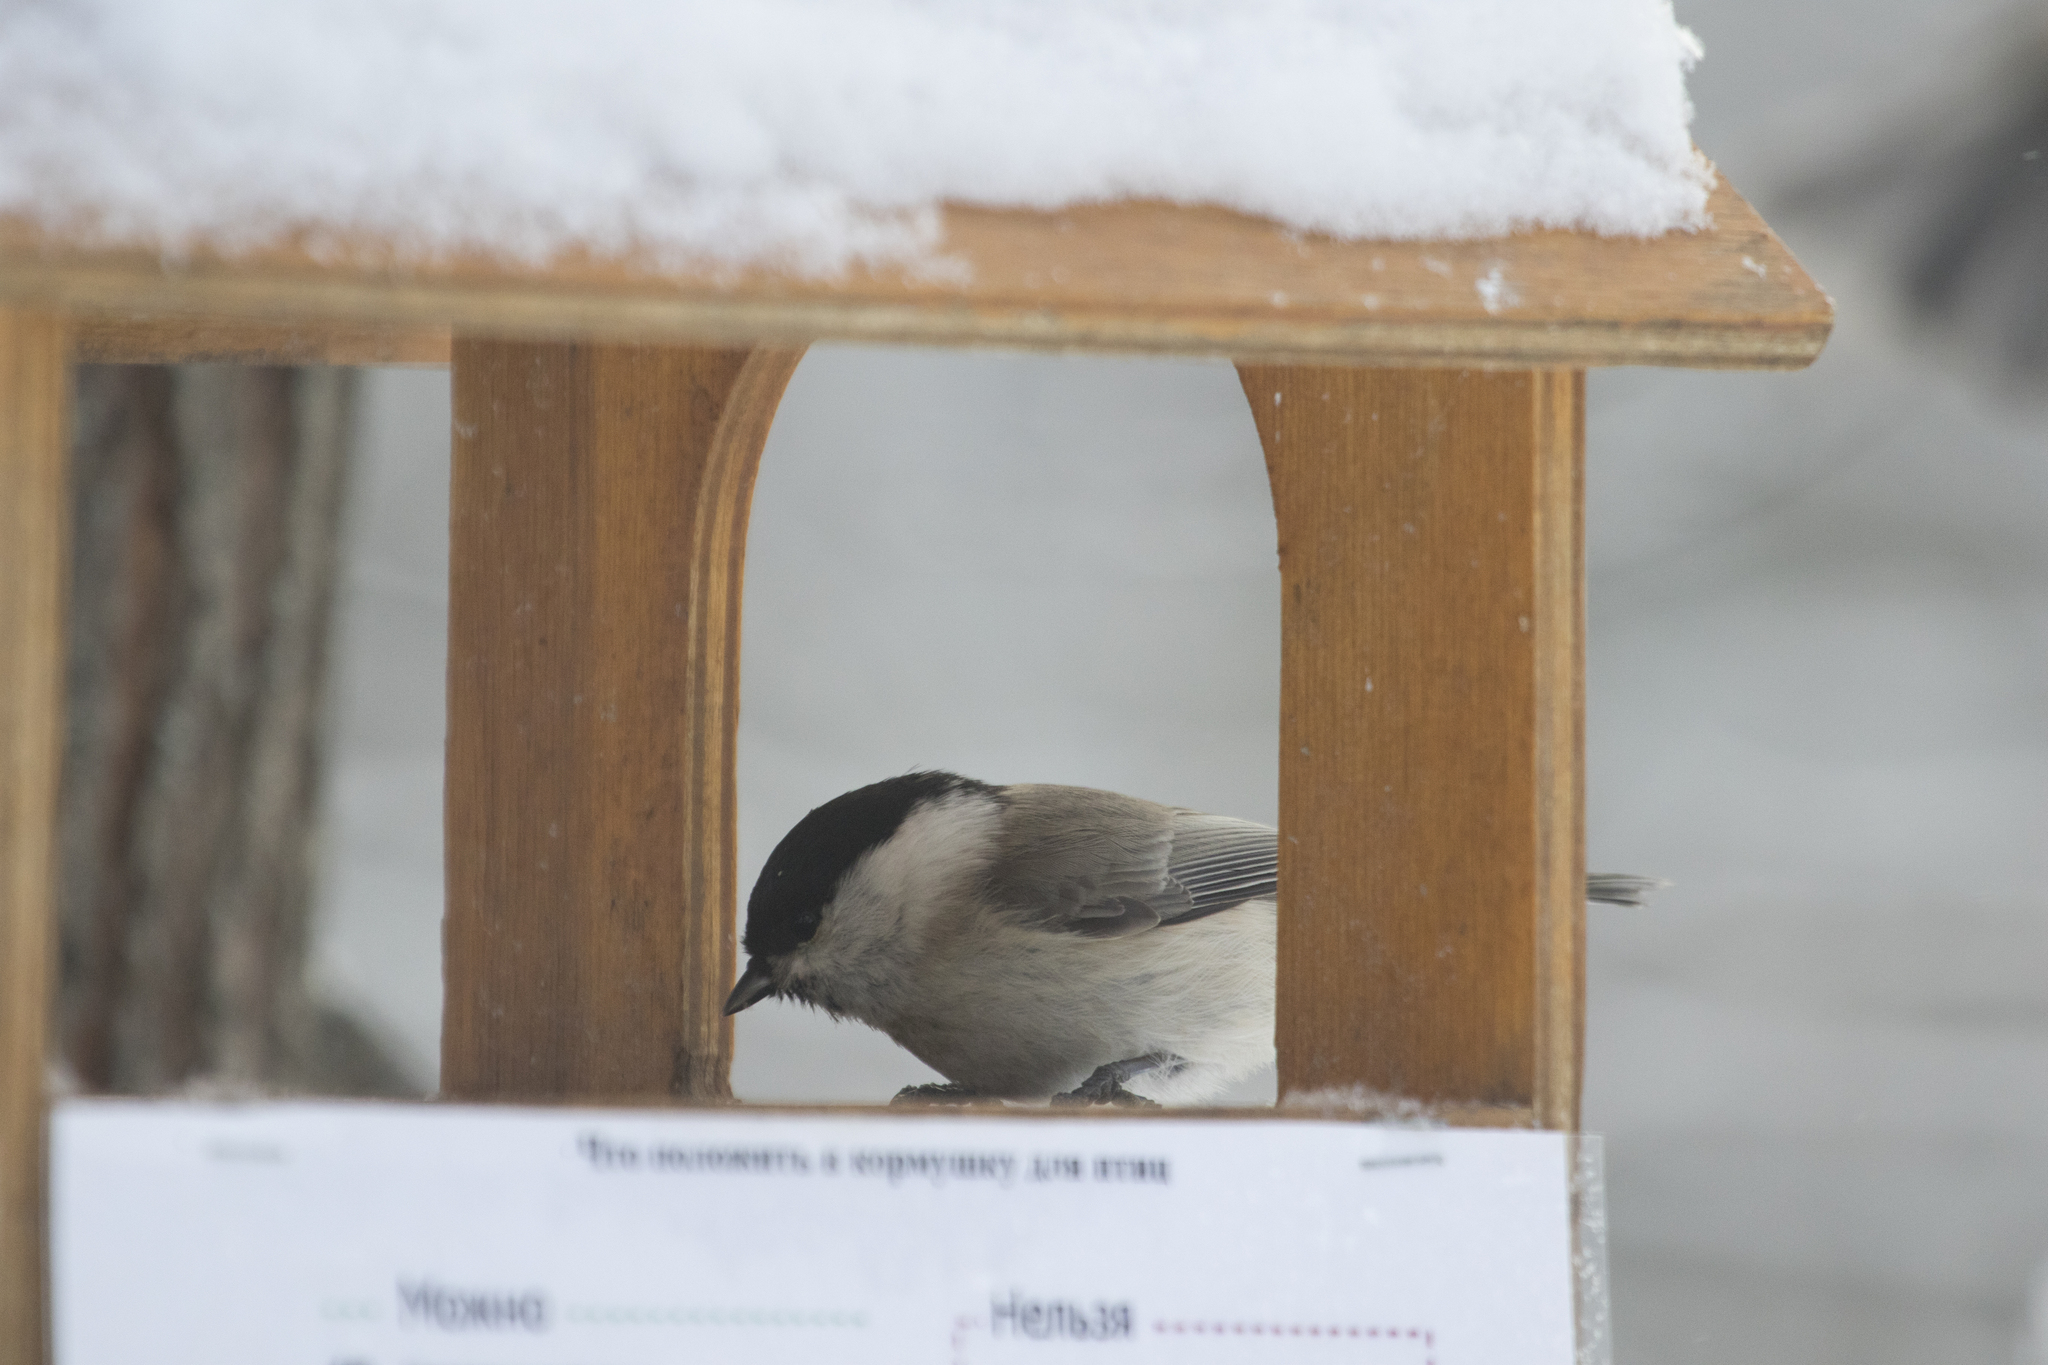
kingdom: Animalia
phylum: Chordata
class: Aves
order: Passeriformes
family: Paridae
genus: Poecile
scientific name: Poecile montanus
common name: Willow tit
